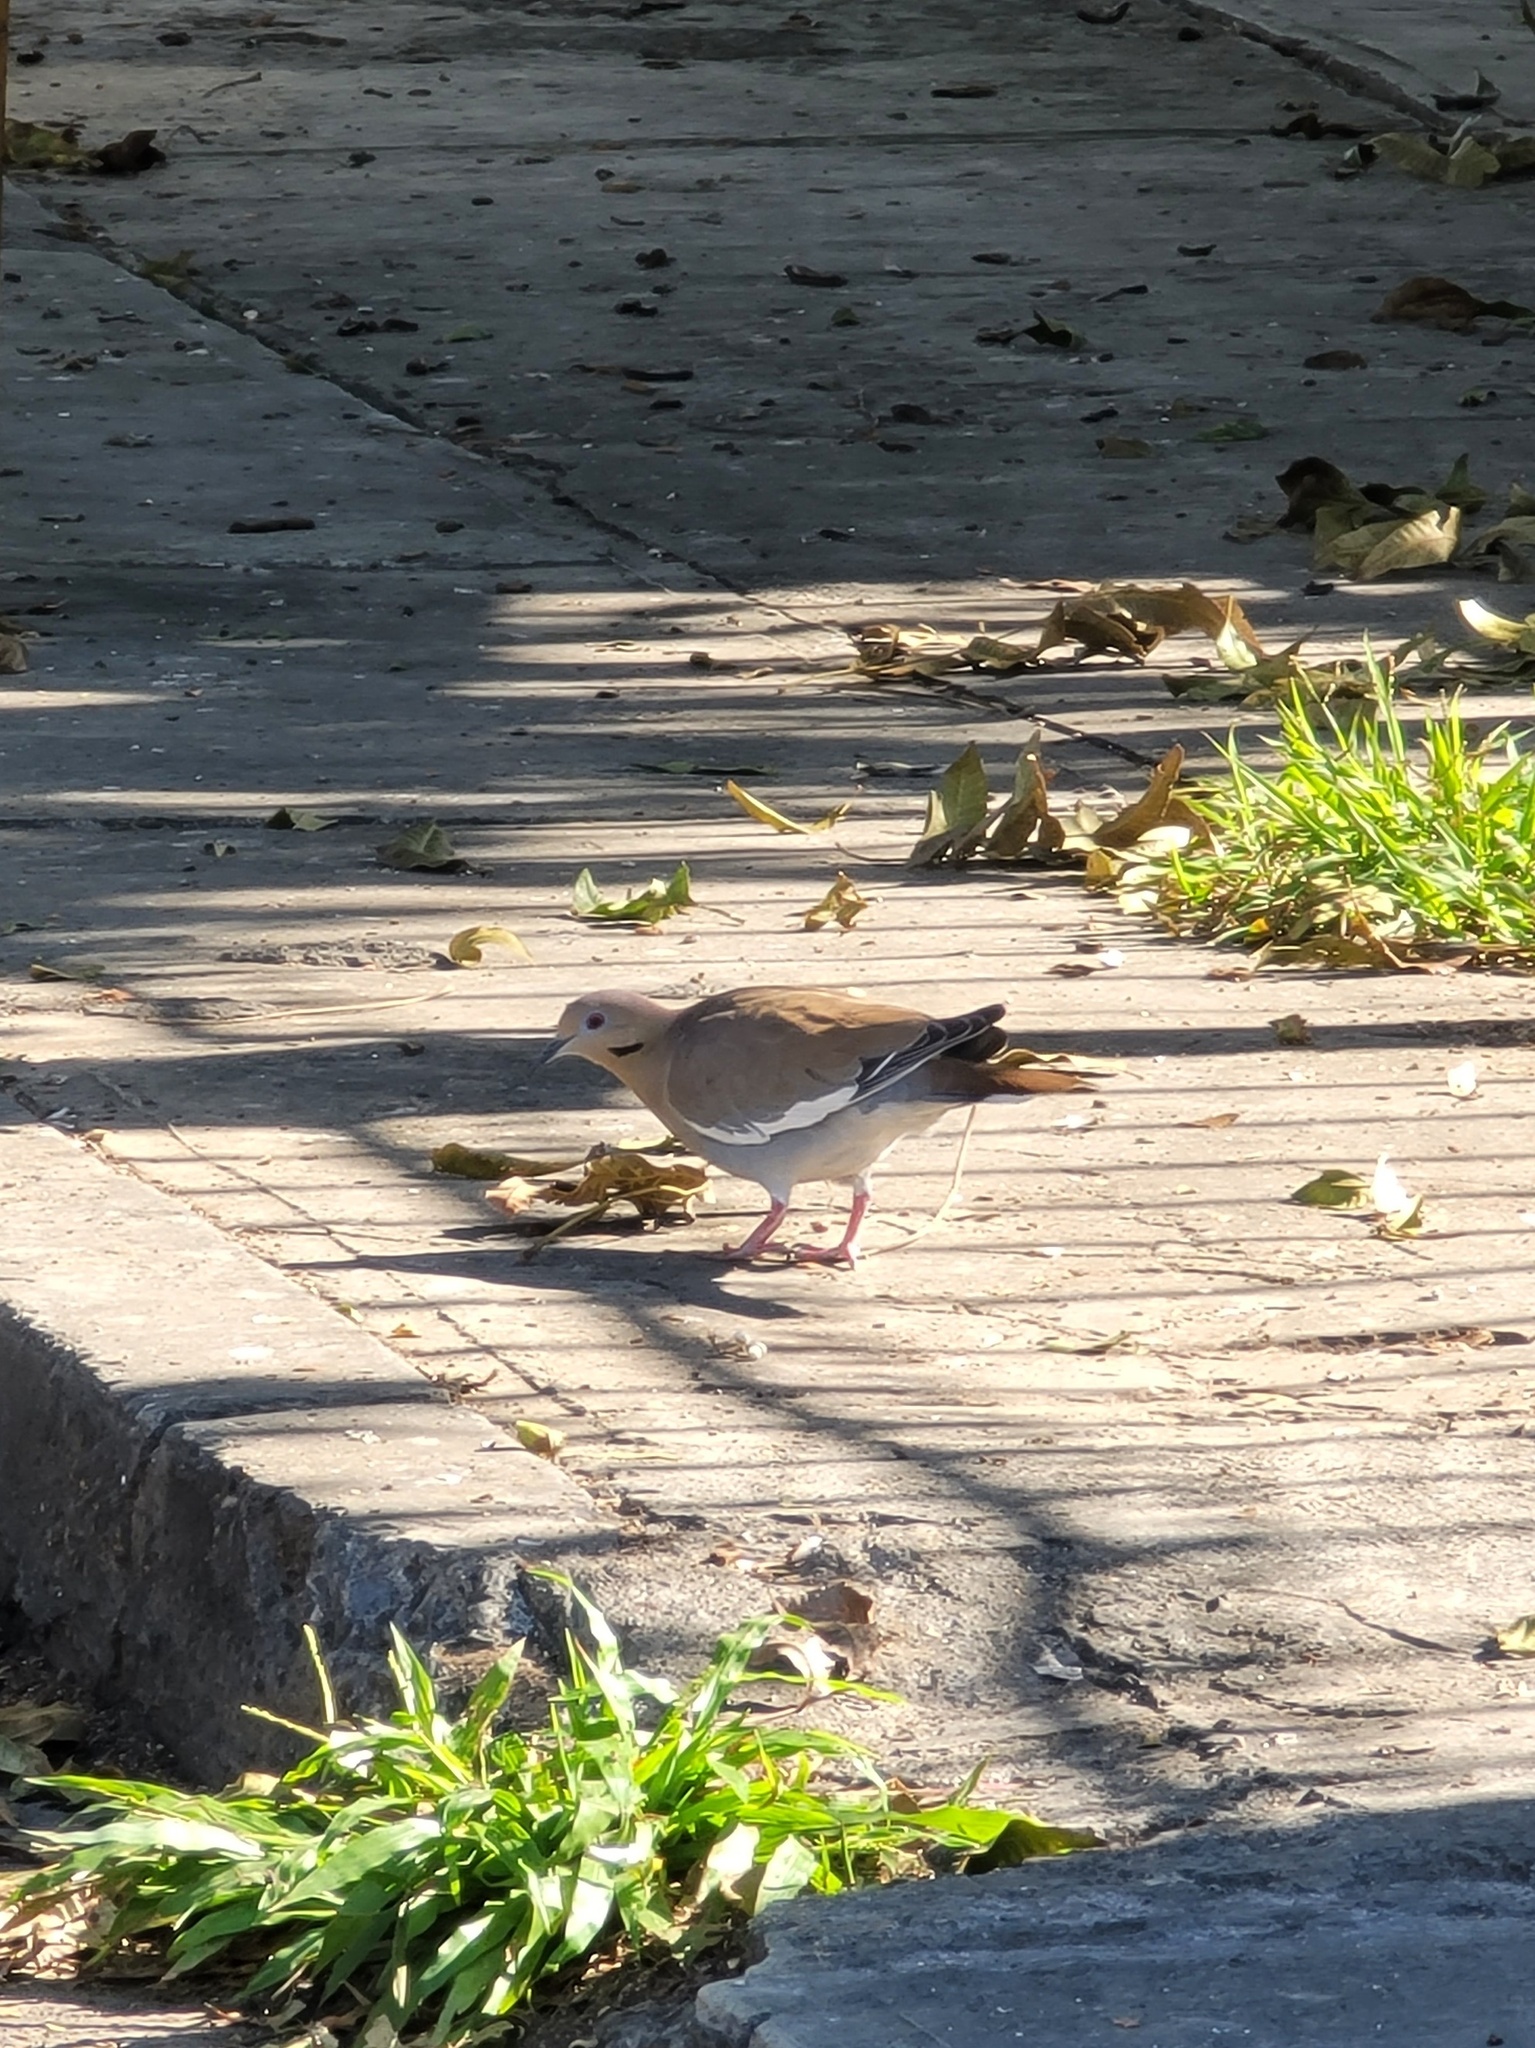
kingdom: Animalia
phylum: Chordata
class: Aves
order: Columbiformes
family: Columbidae
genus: Zenaida
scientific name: Zenaida asiatica
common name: White-winged dove
